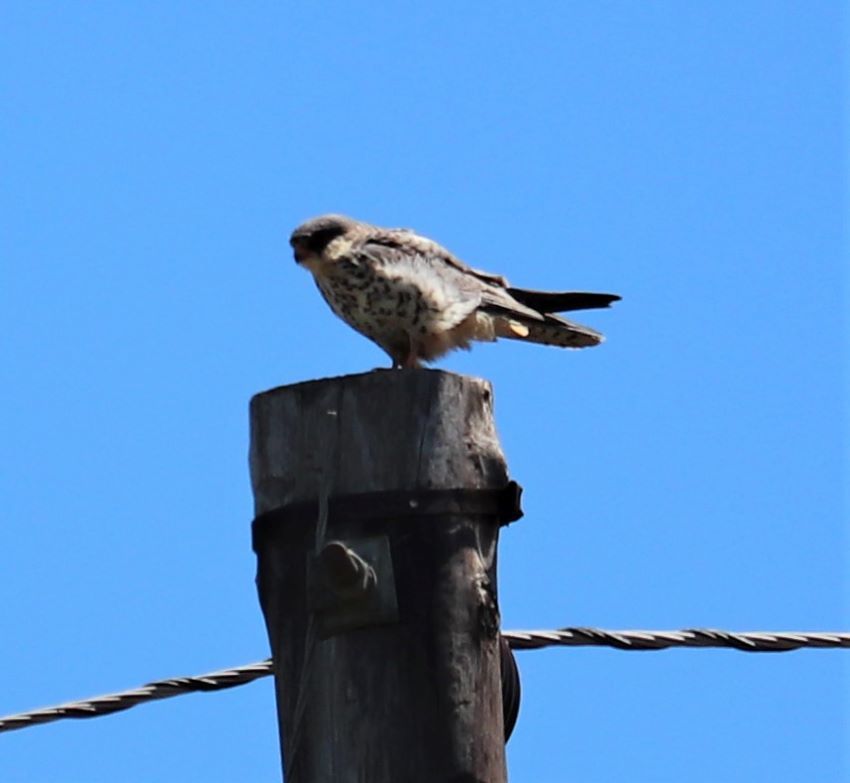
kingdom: Animalia
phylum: Chordata
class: Aves
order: Falconiformes
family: Falconidae
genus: Falco
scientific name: Falco amurensis
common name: Amur falcon
